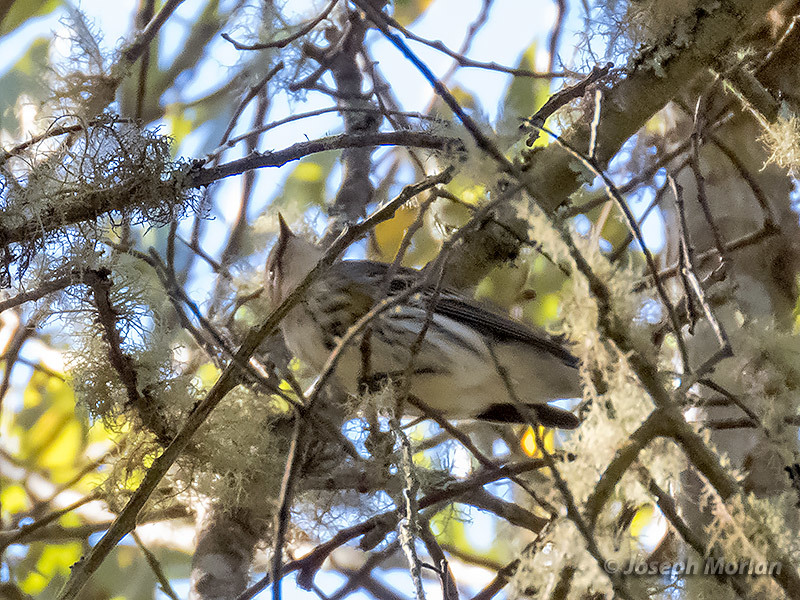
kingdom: Animalia
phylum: Chordata
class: Aves
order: Passeriformes
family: Parulidae
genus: Setophaga
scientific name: Setophaga coronata
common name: Myrtle warbler
